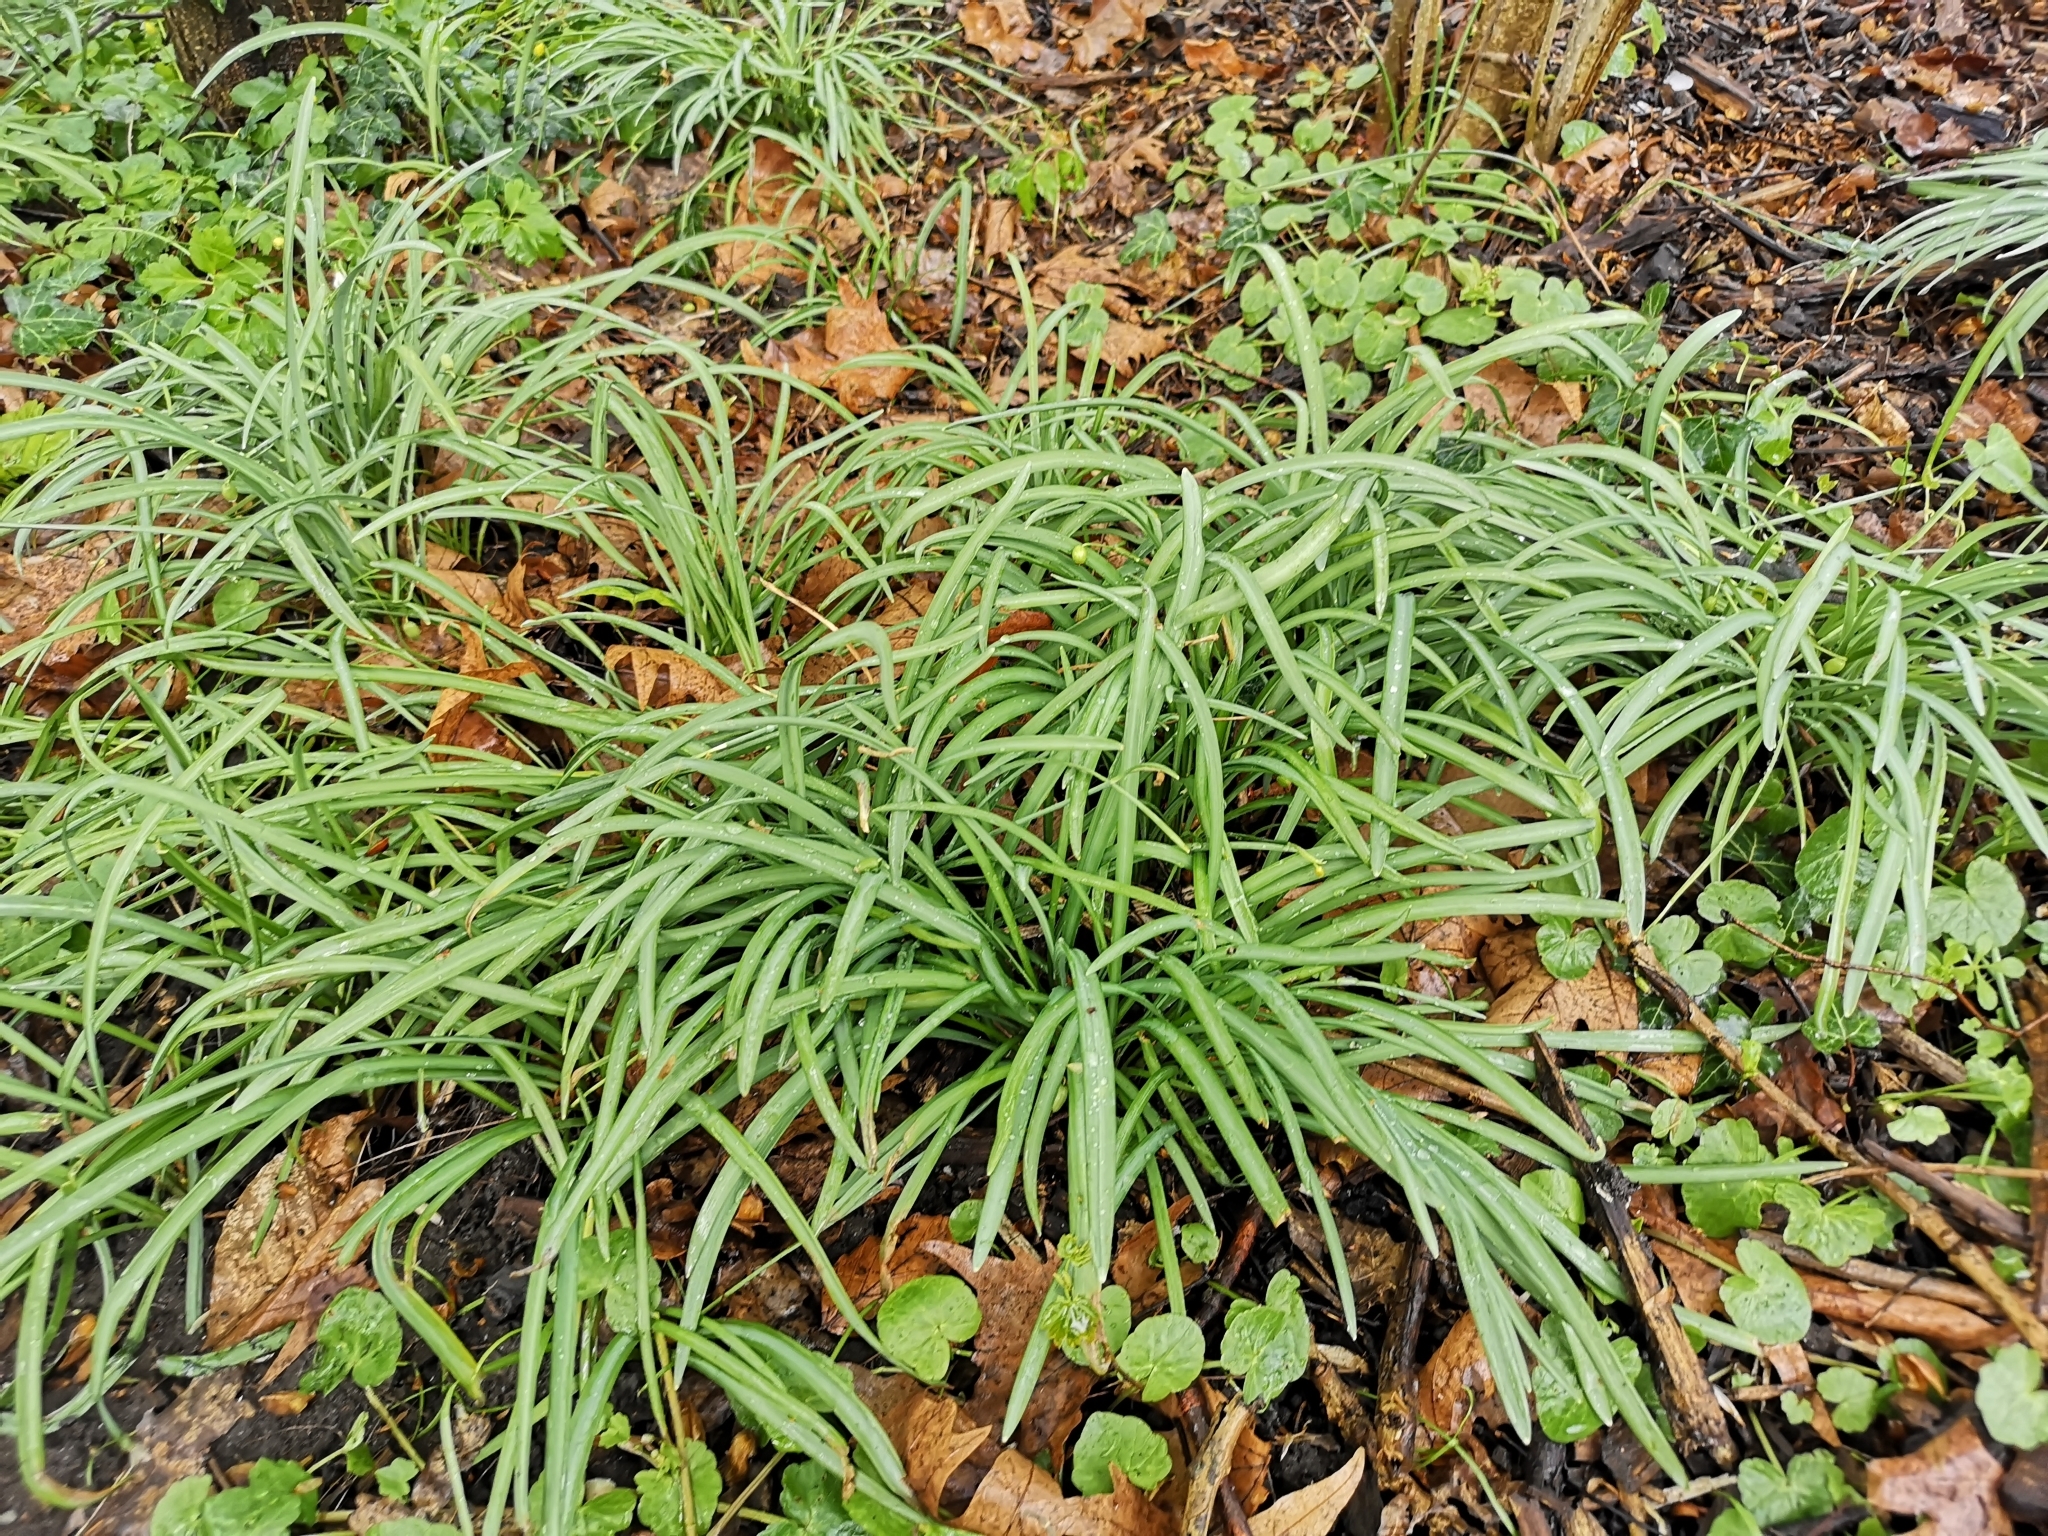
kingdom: Plantae
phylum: Tracheophyta
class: Liliopsida
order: Asparagales
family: Amaryllidaceae
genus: Galanthus
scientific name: Galanthus nivalis
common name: Snowdrop
